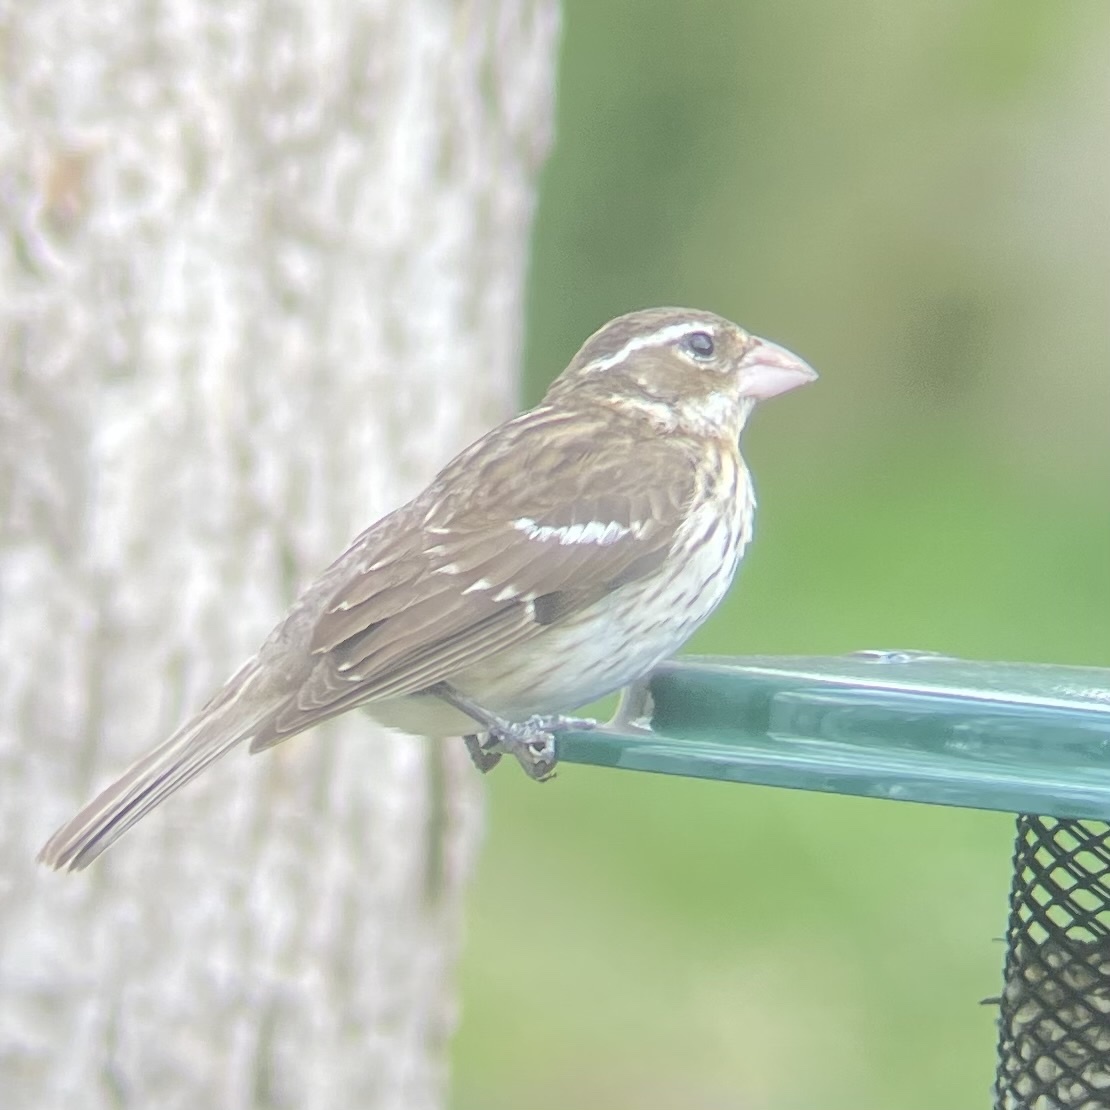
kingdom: Animalia
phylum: Chordata
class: Aves
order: Passeriformes
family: Cardinalidae
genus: Pheucticus
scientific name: Pheucticus ludovicianus
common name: Rose-breasted grosbeak
